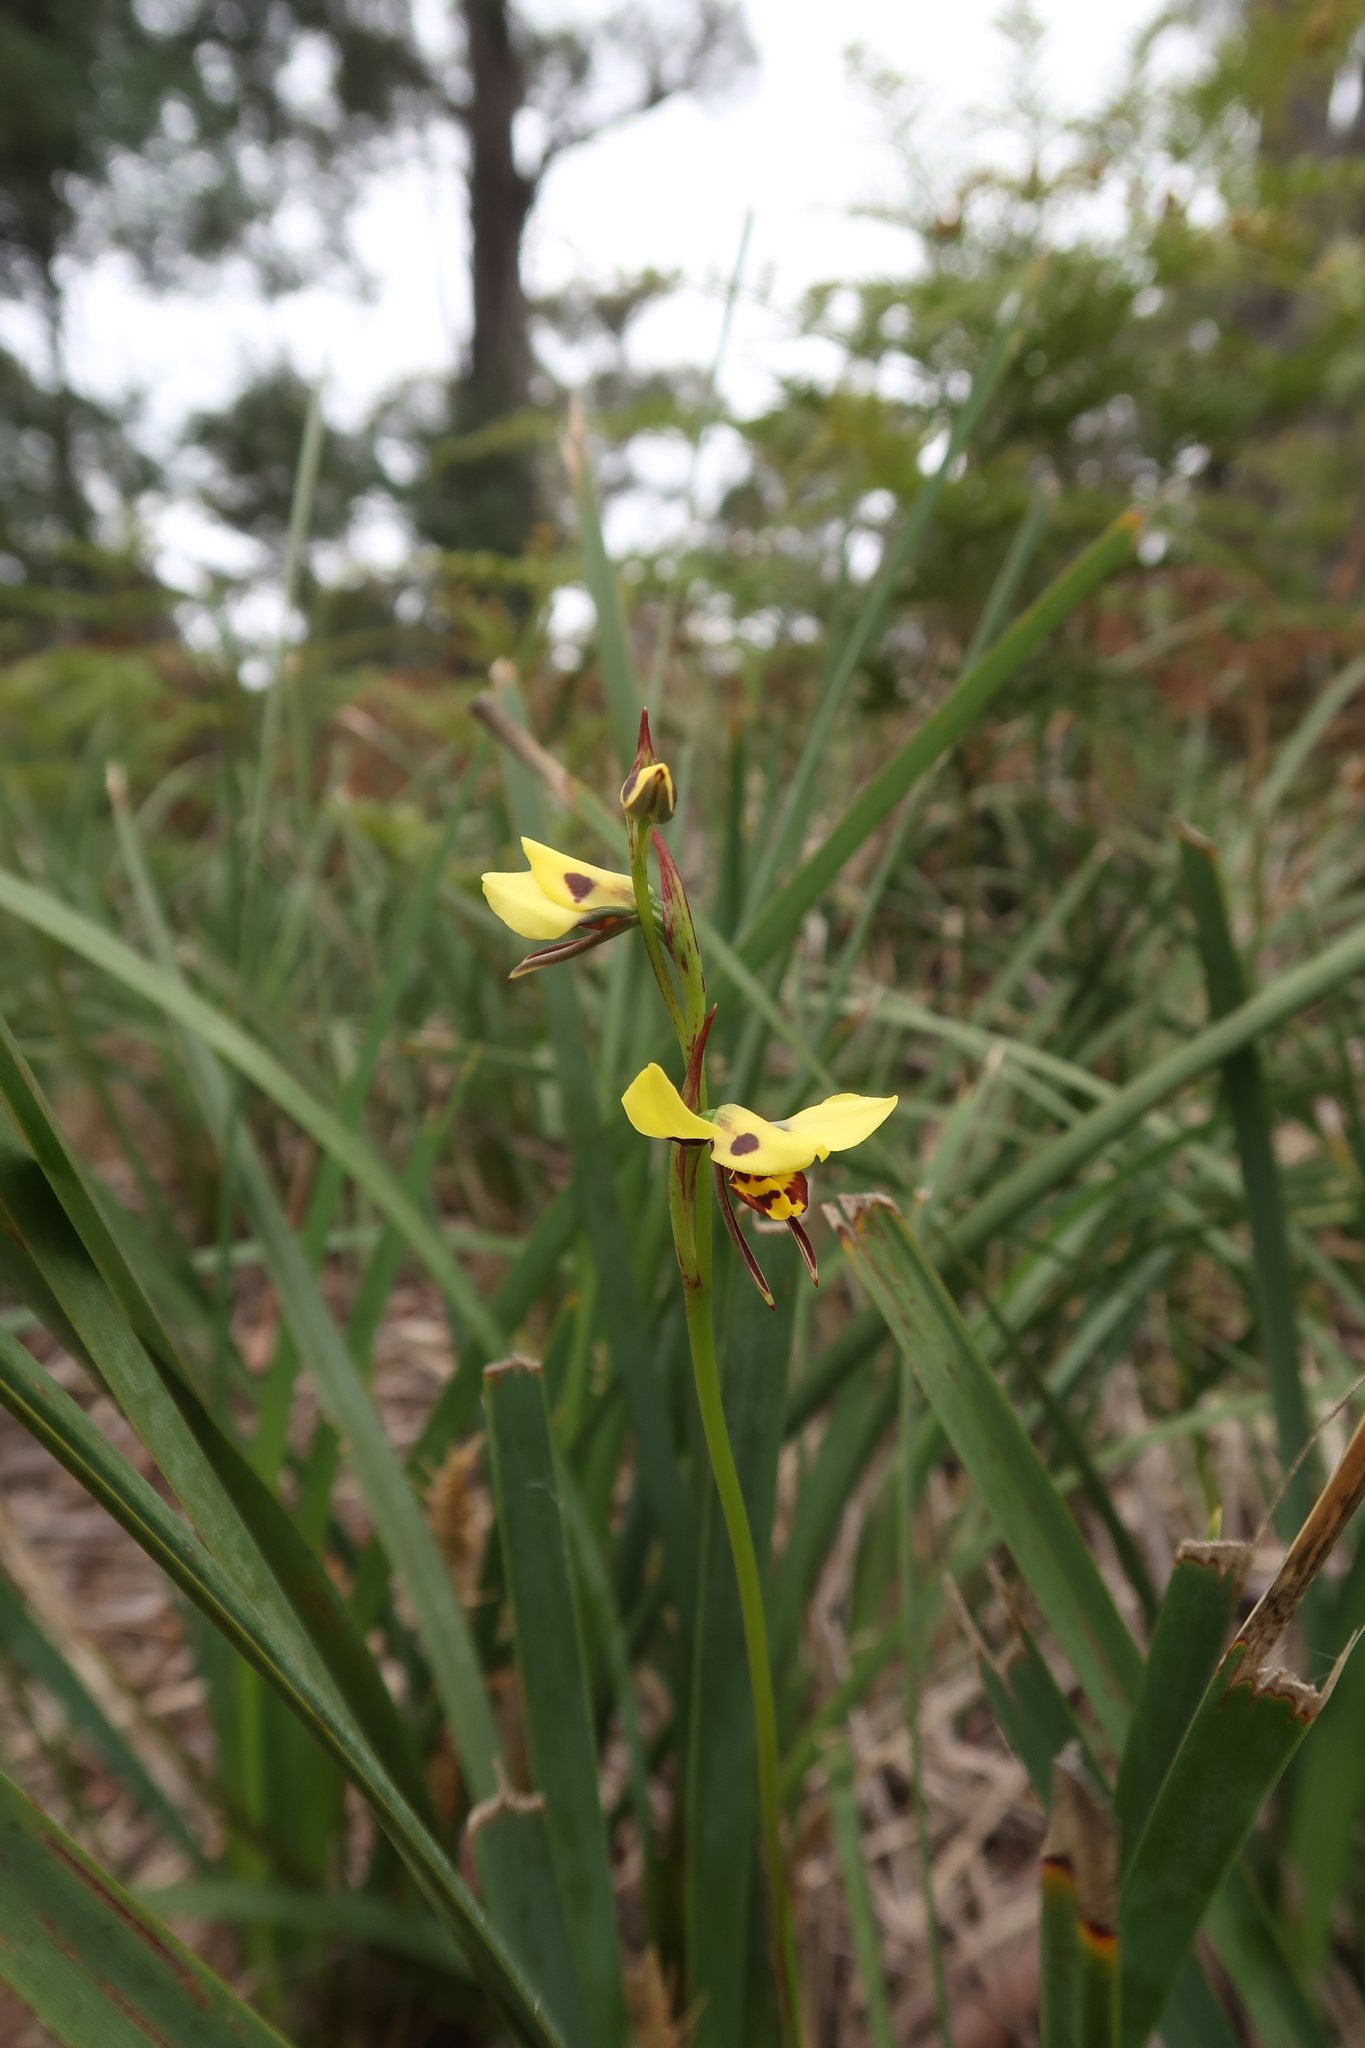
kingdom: Plantae
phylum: Tracheophyta
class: Liliopsida
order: Asparagales
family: Orchidaceae
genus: Diuris
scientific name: Diuris sulphurea
